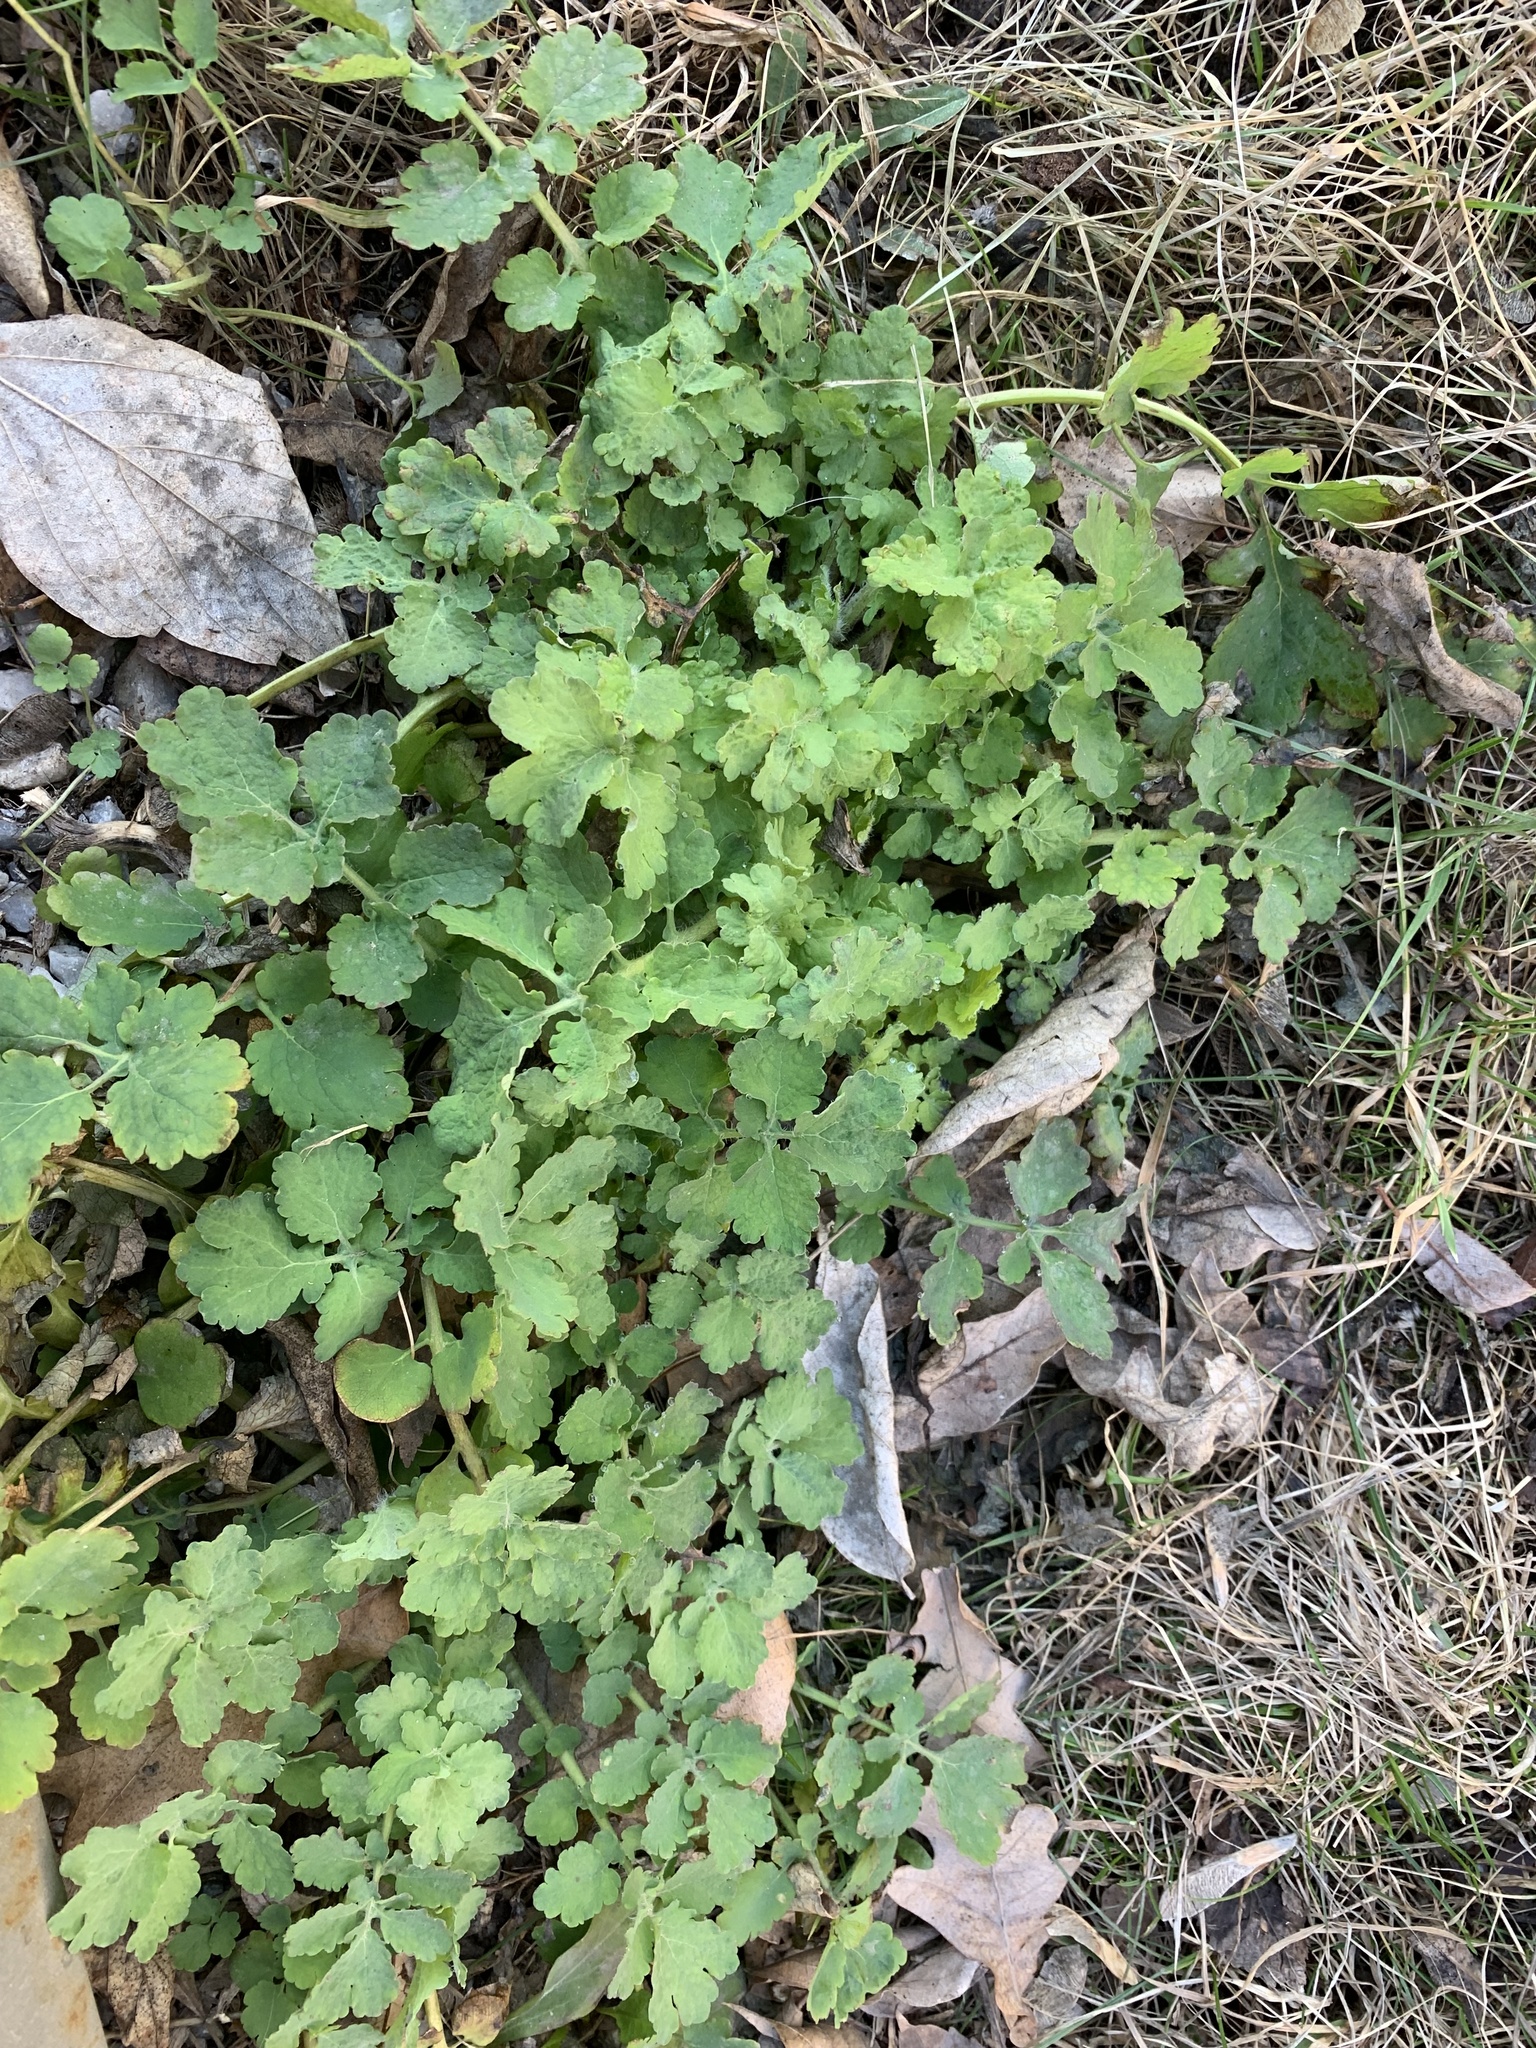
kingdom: Plantae
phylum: Tracheophyta
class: Magnoliopsida
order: Ranunculales
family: Papaveraceae
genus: Chelidonium
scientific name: Chelidonium majus
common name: Greater celandine
